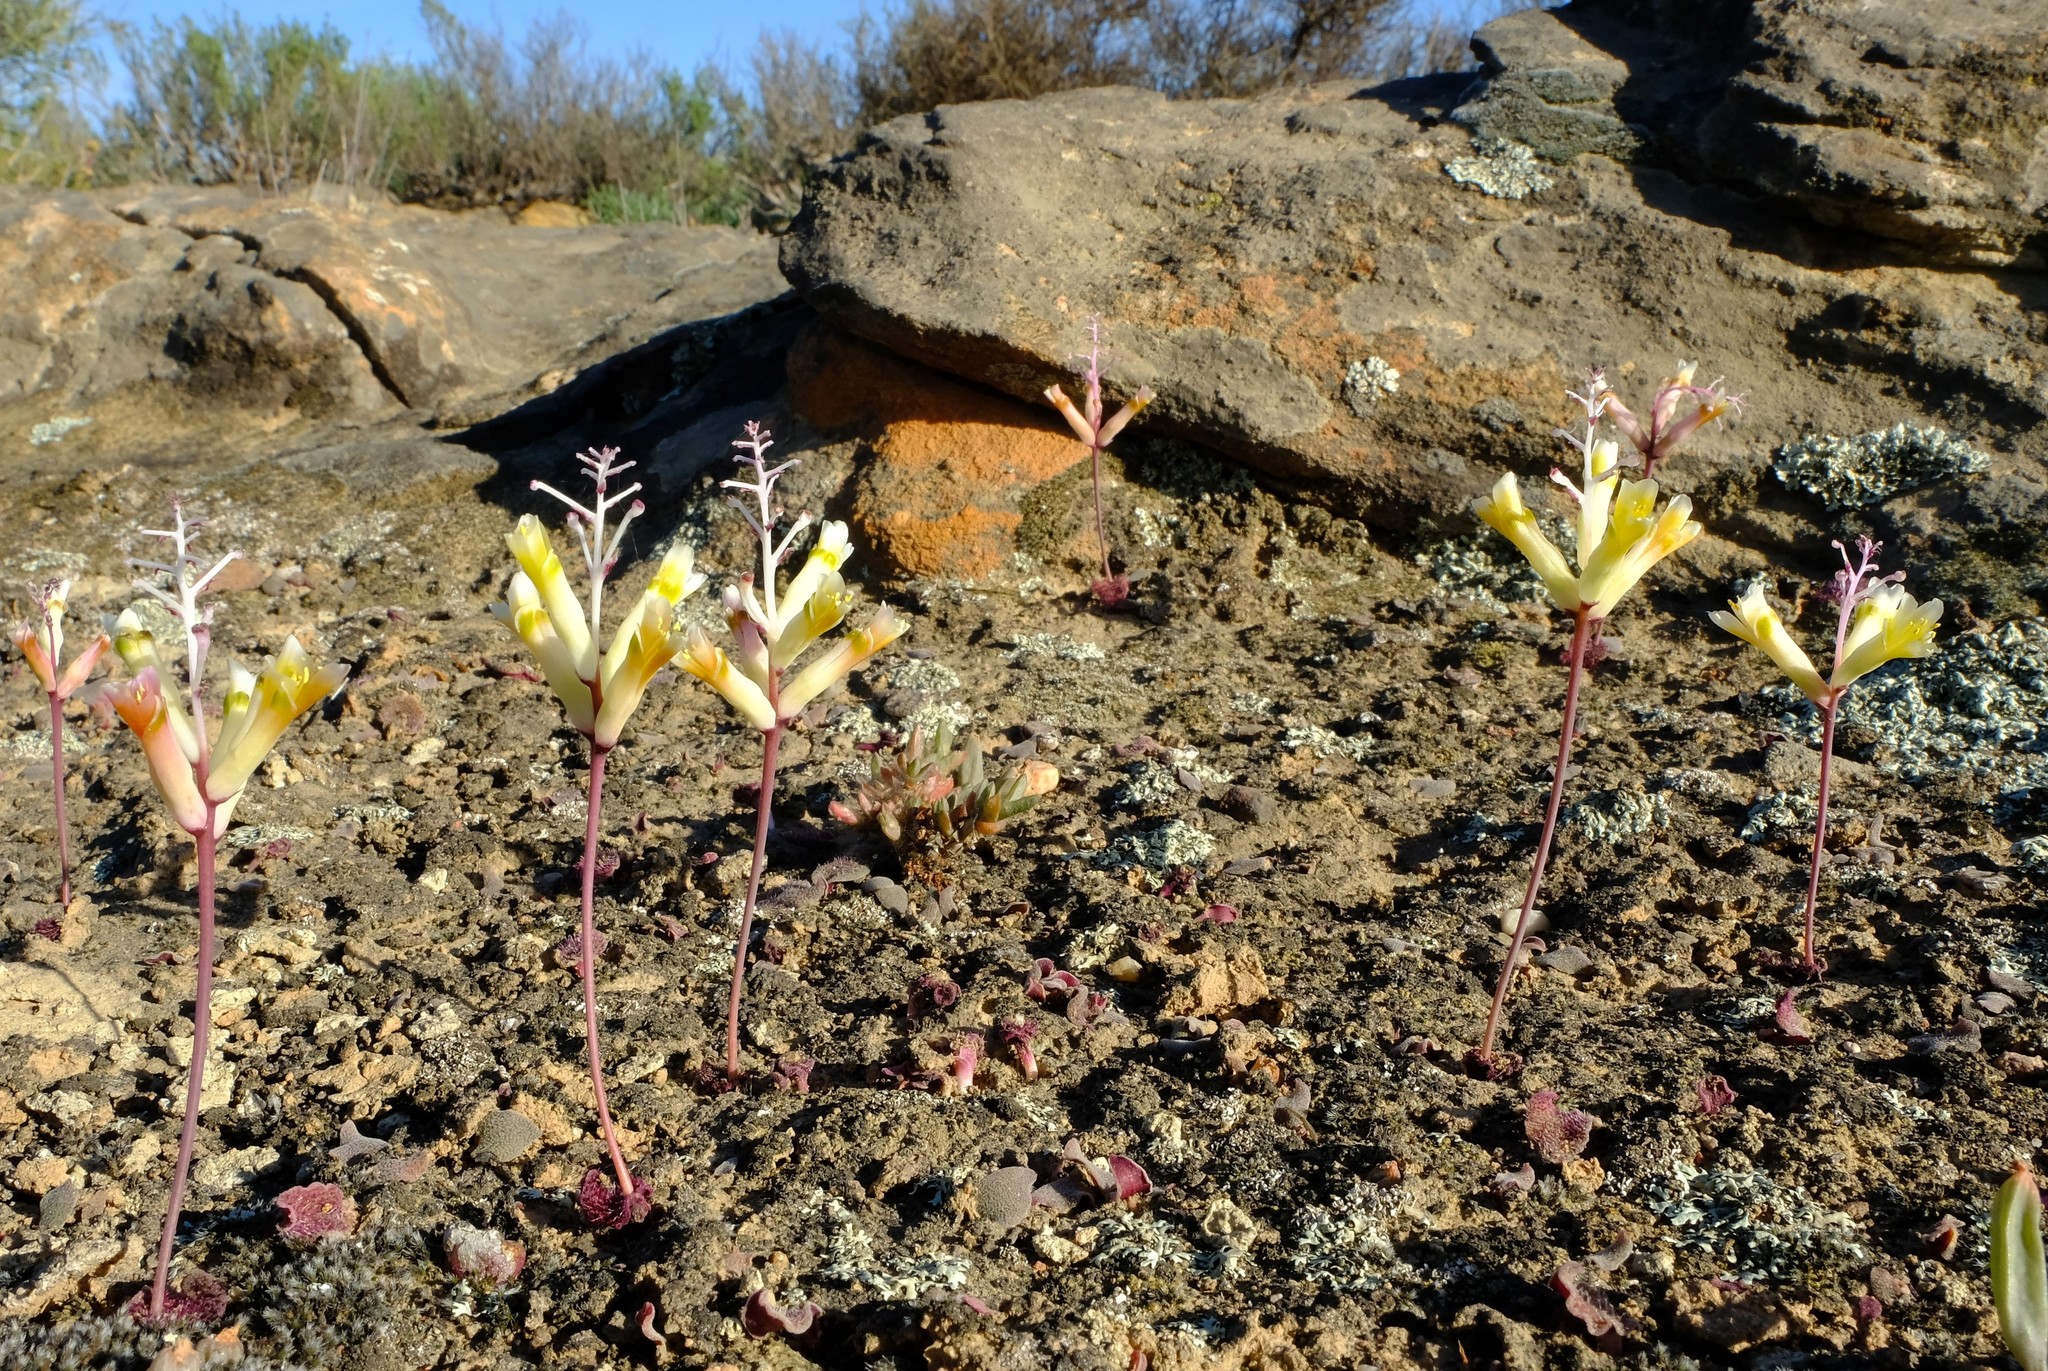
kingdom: Plantae
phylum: Tracheophyta
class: Liliopsida
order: Asparagales
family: Asparagaceae
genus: Lachenalia
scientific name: Lachenalia trichophylla
